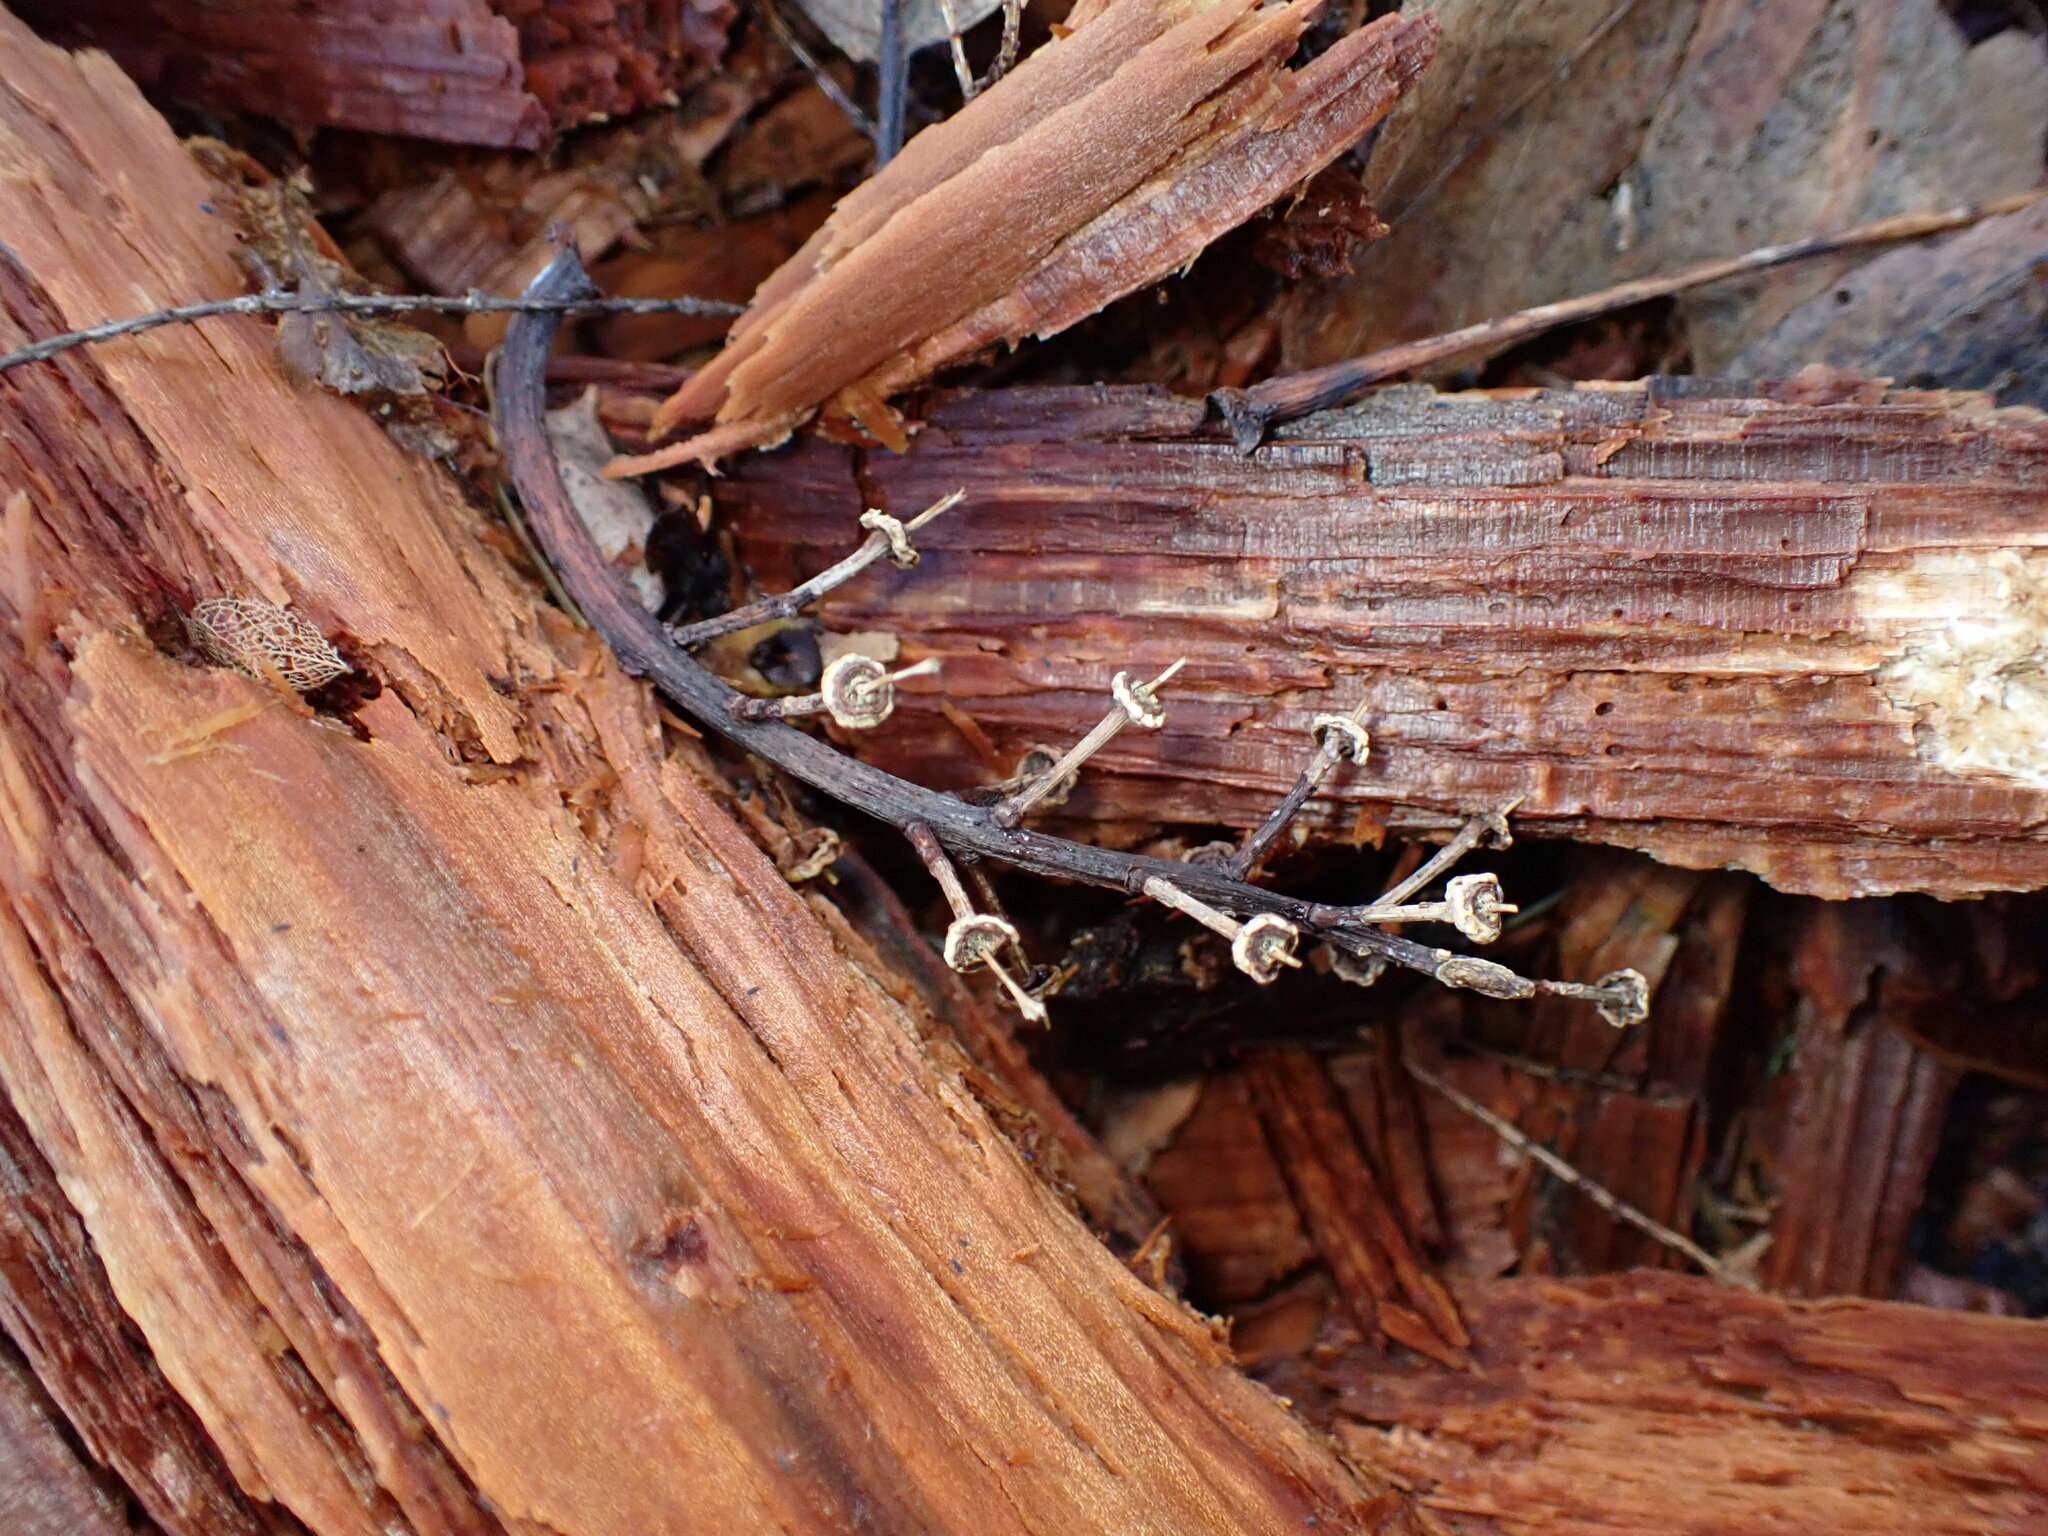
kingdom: Plantae
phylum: Tracheophyta
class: Magnoliopsida
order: Sapindales
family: Sapindaceae
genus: Acer
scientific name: Acer macrophyllum
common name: Oregon maple
